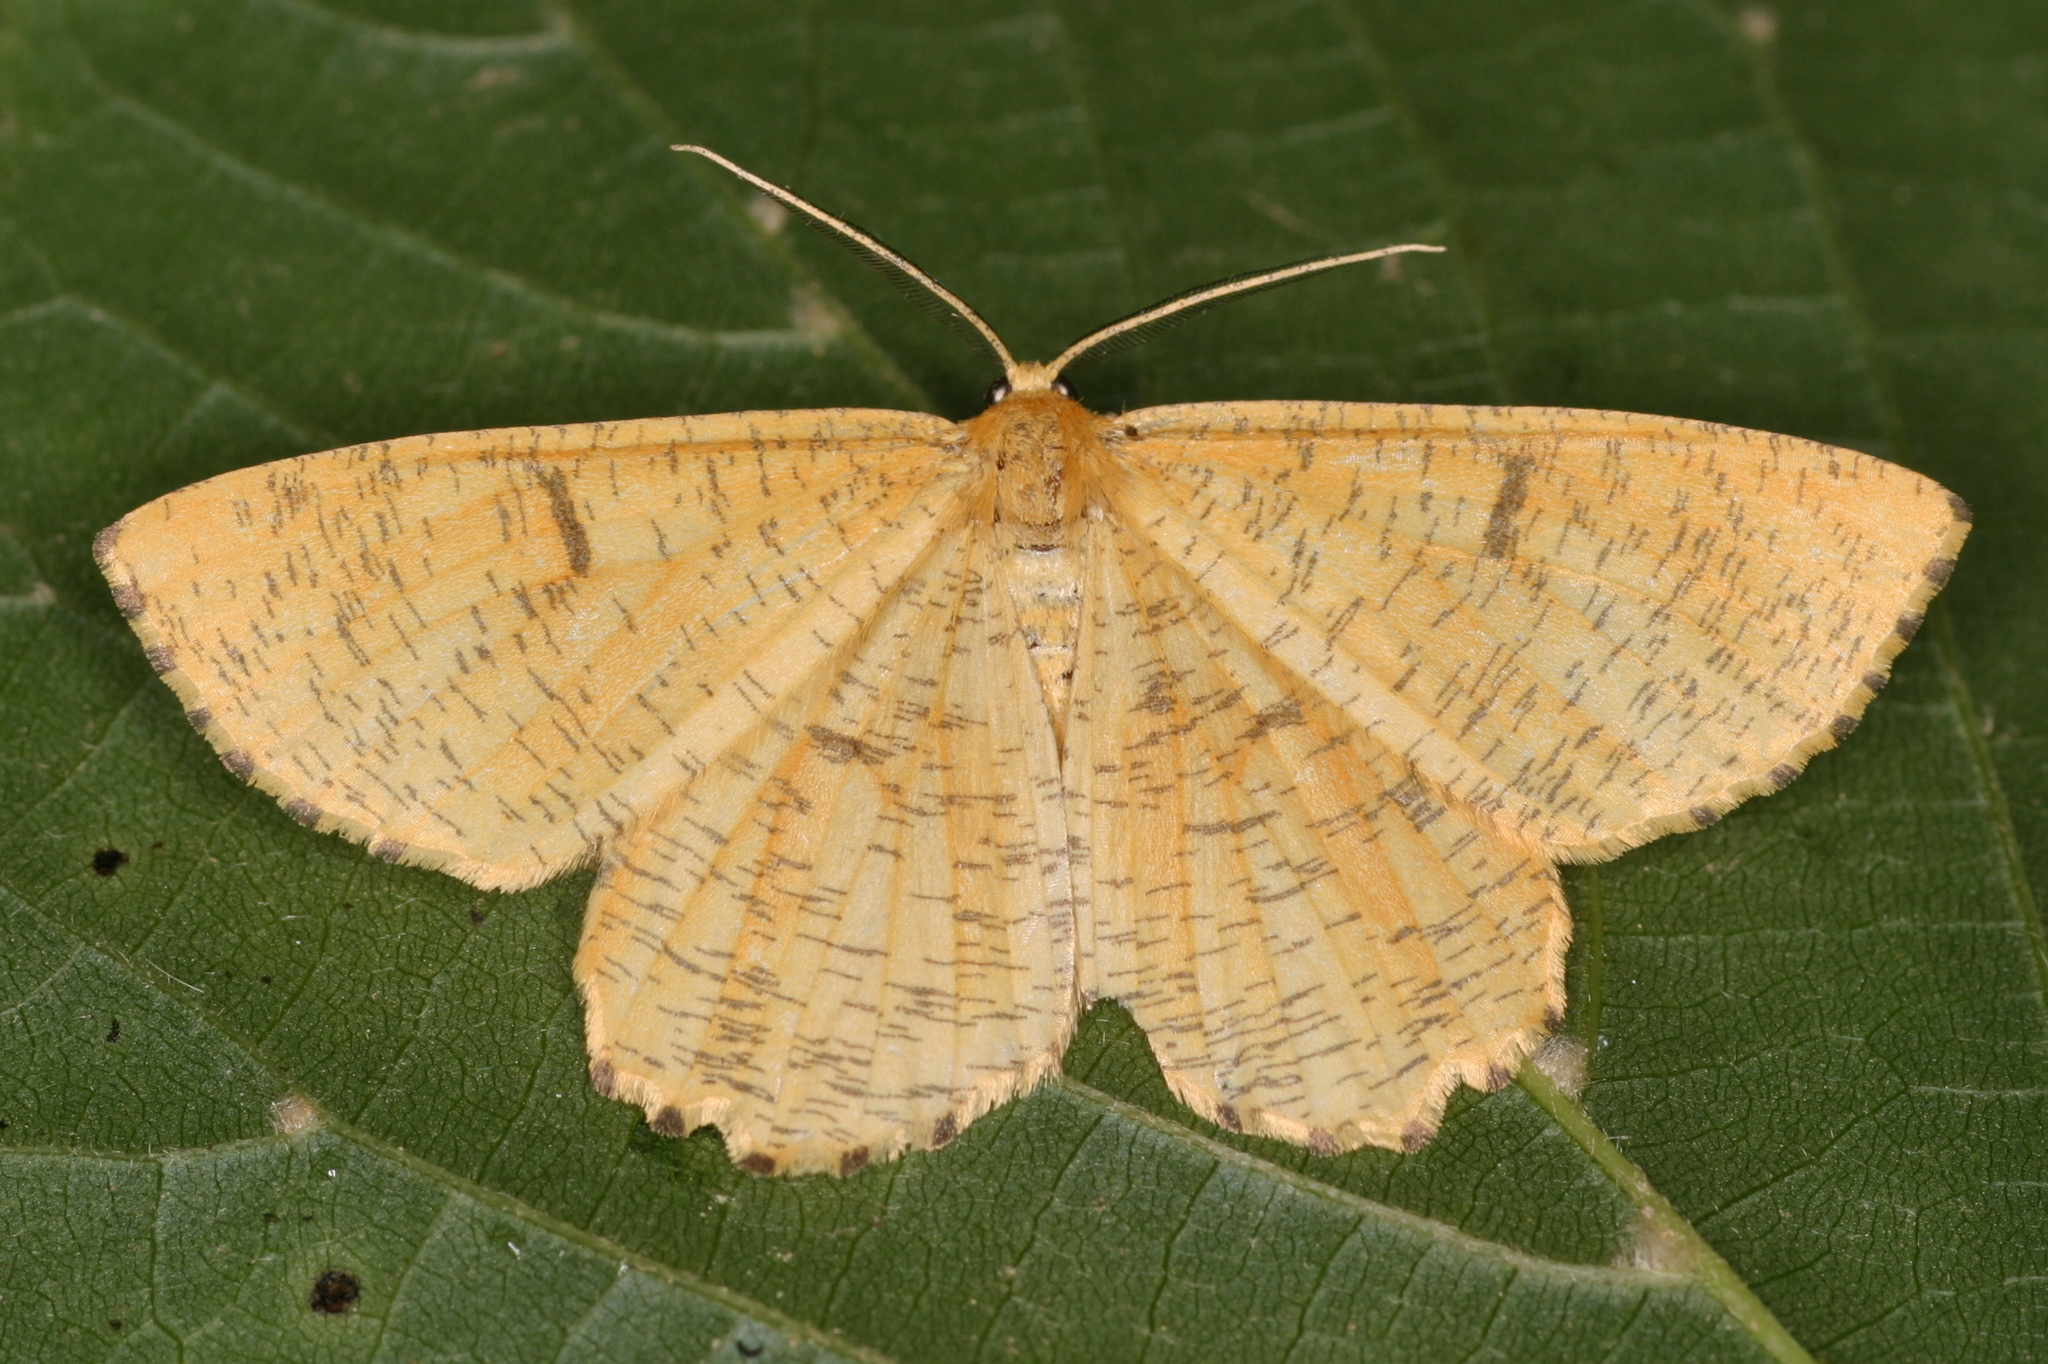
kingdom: Animalia
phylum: Arthropoda
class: Insecta
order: Lepidoptera
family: Geometridae
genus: Angerona
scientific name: Angerona prunaria
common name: Orange moth
